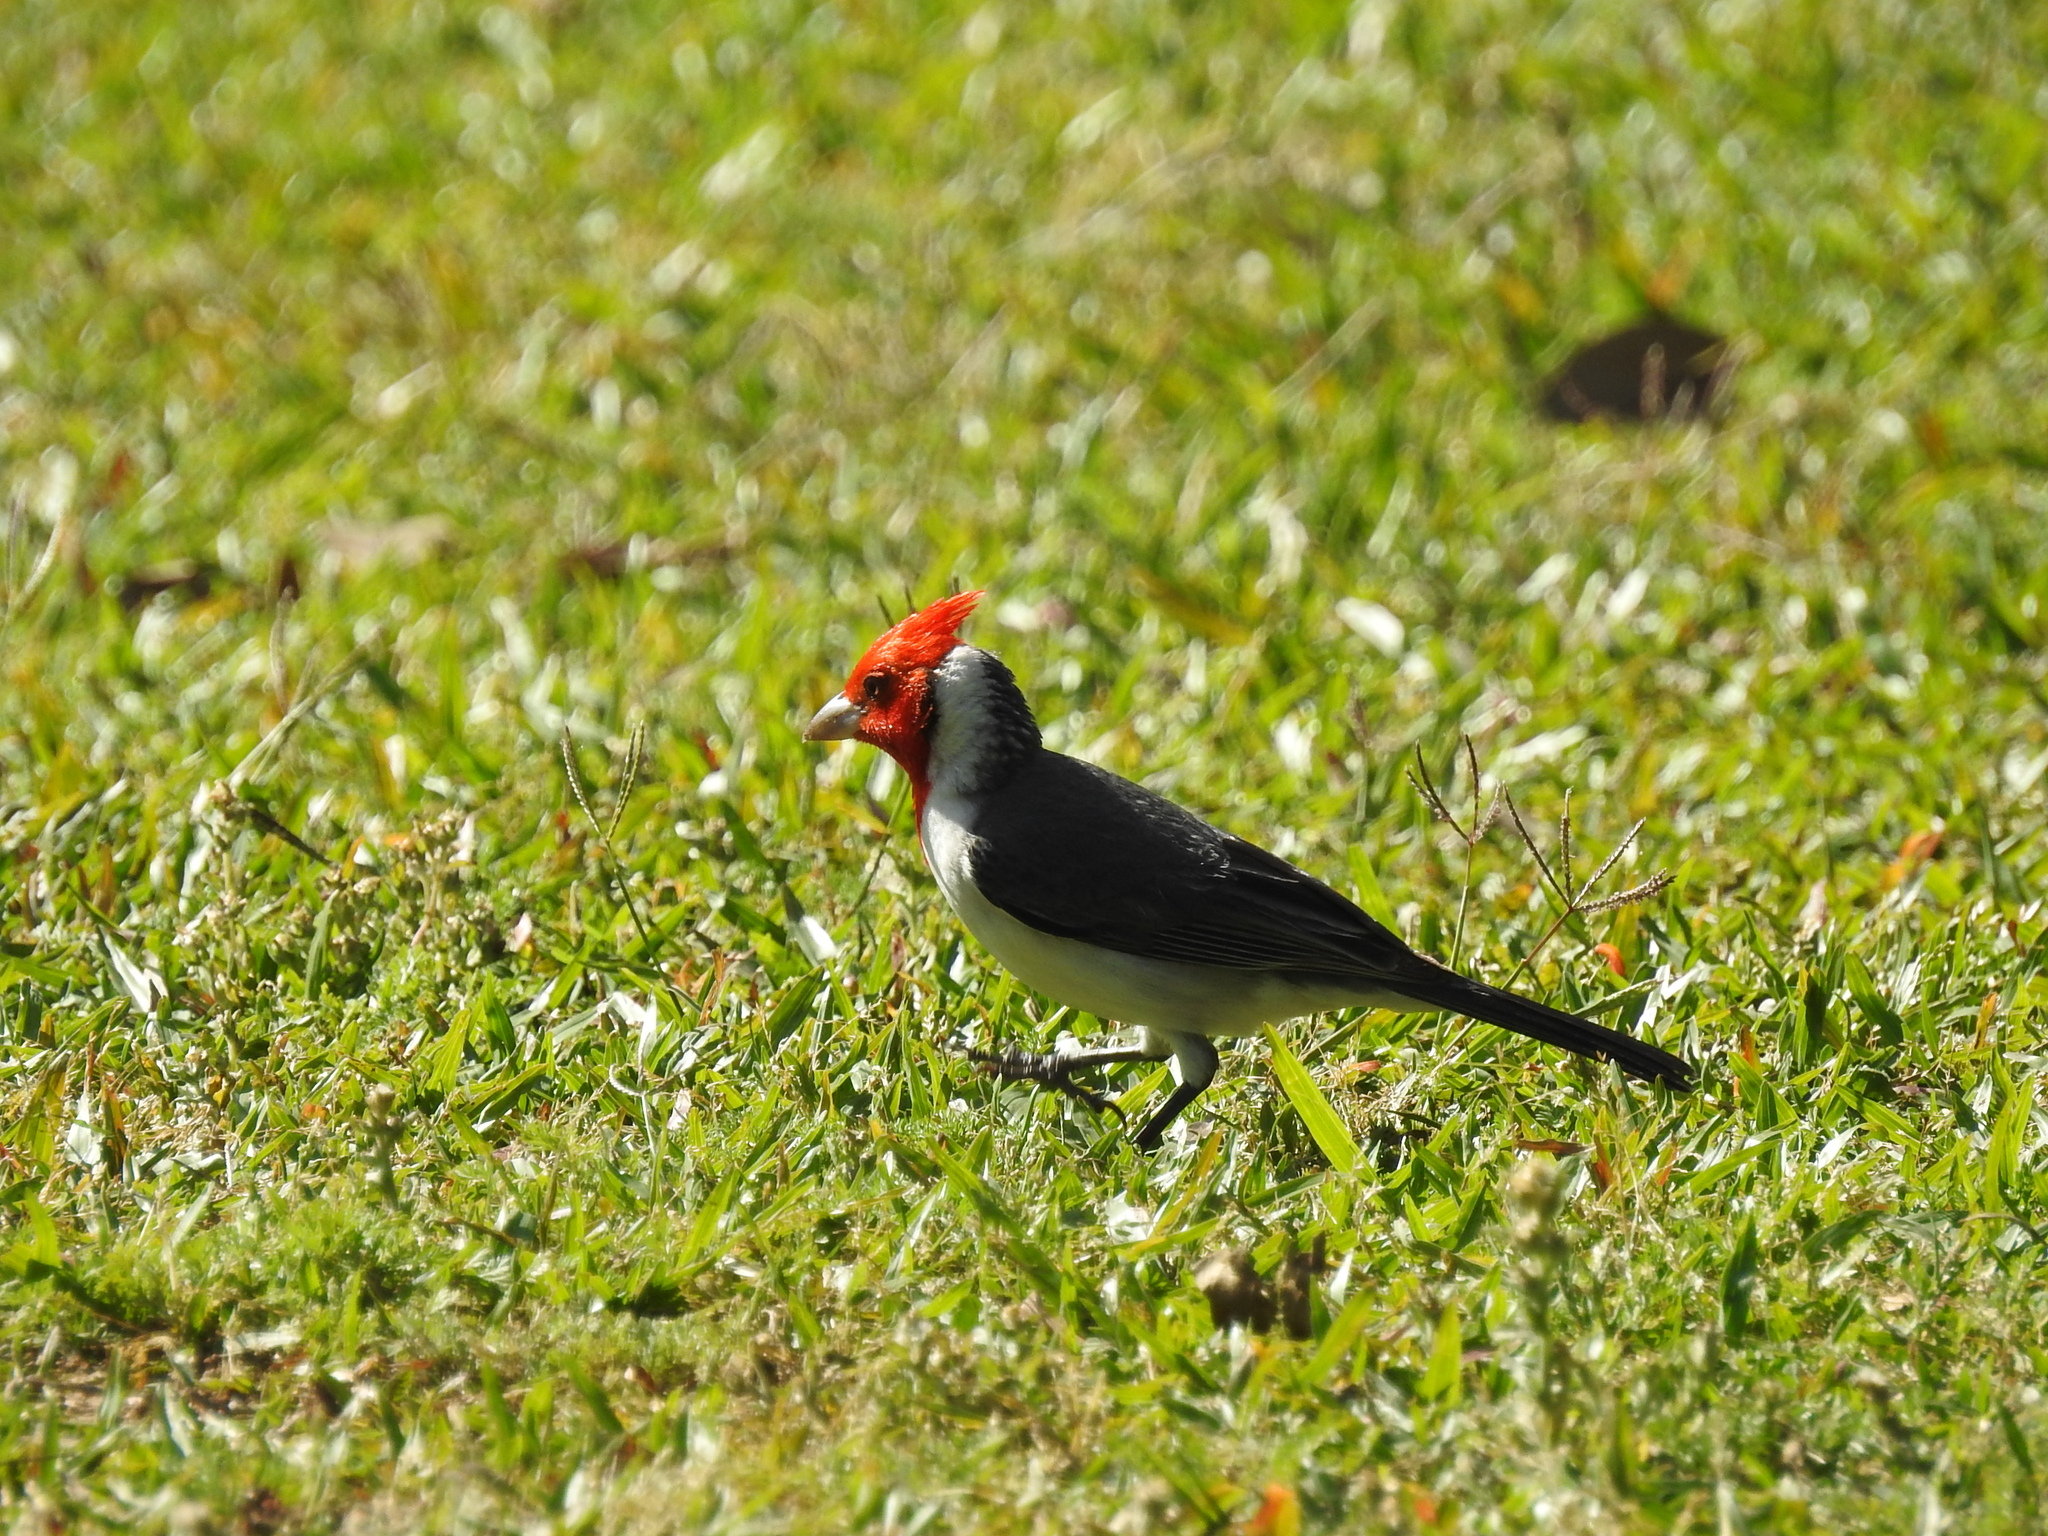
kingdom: Animalia
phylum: Chordata
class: Aves
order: Passeriformes
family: Thraupidae
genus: Paroaria
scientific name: Paroaria coronata
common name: Red-crested cardinal
